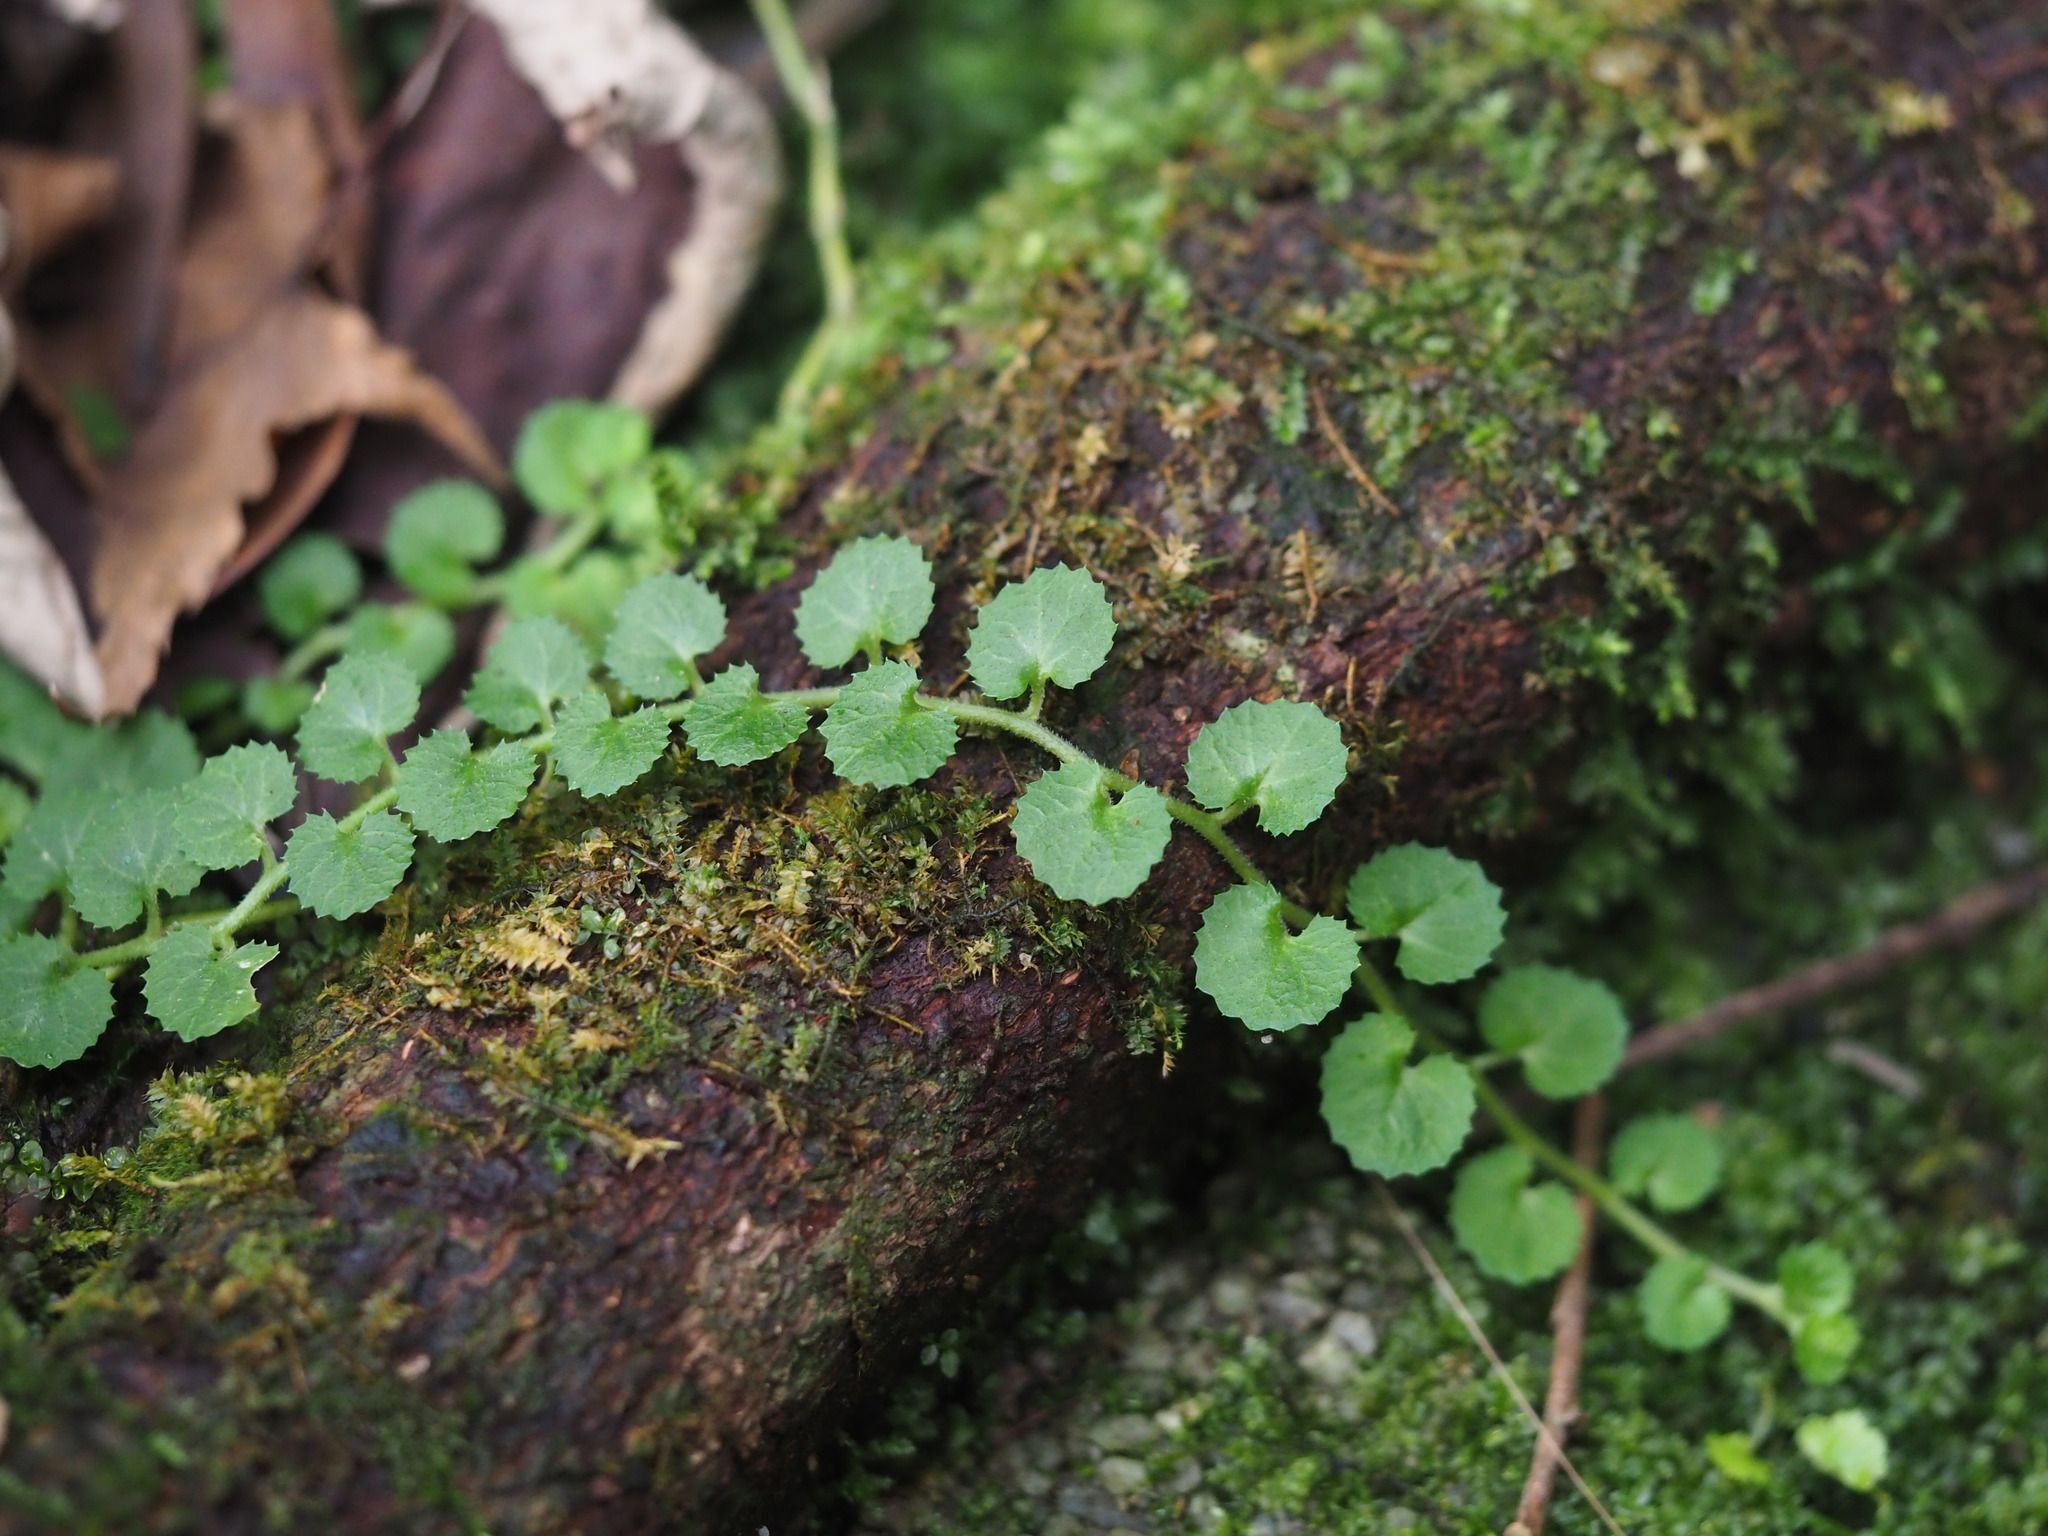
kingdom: Plantae
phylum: Tracheophyta
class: Magnoliopsida
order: Asterales
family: Campanulaceae
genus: Lobelia
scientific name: Lobelia nummularia
